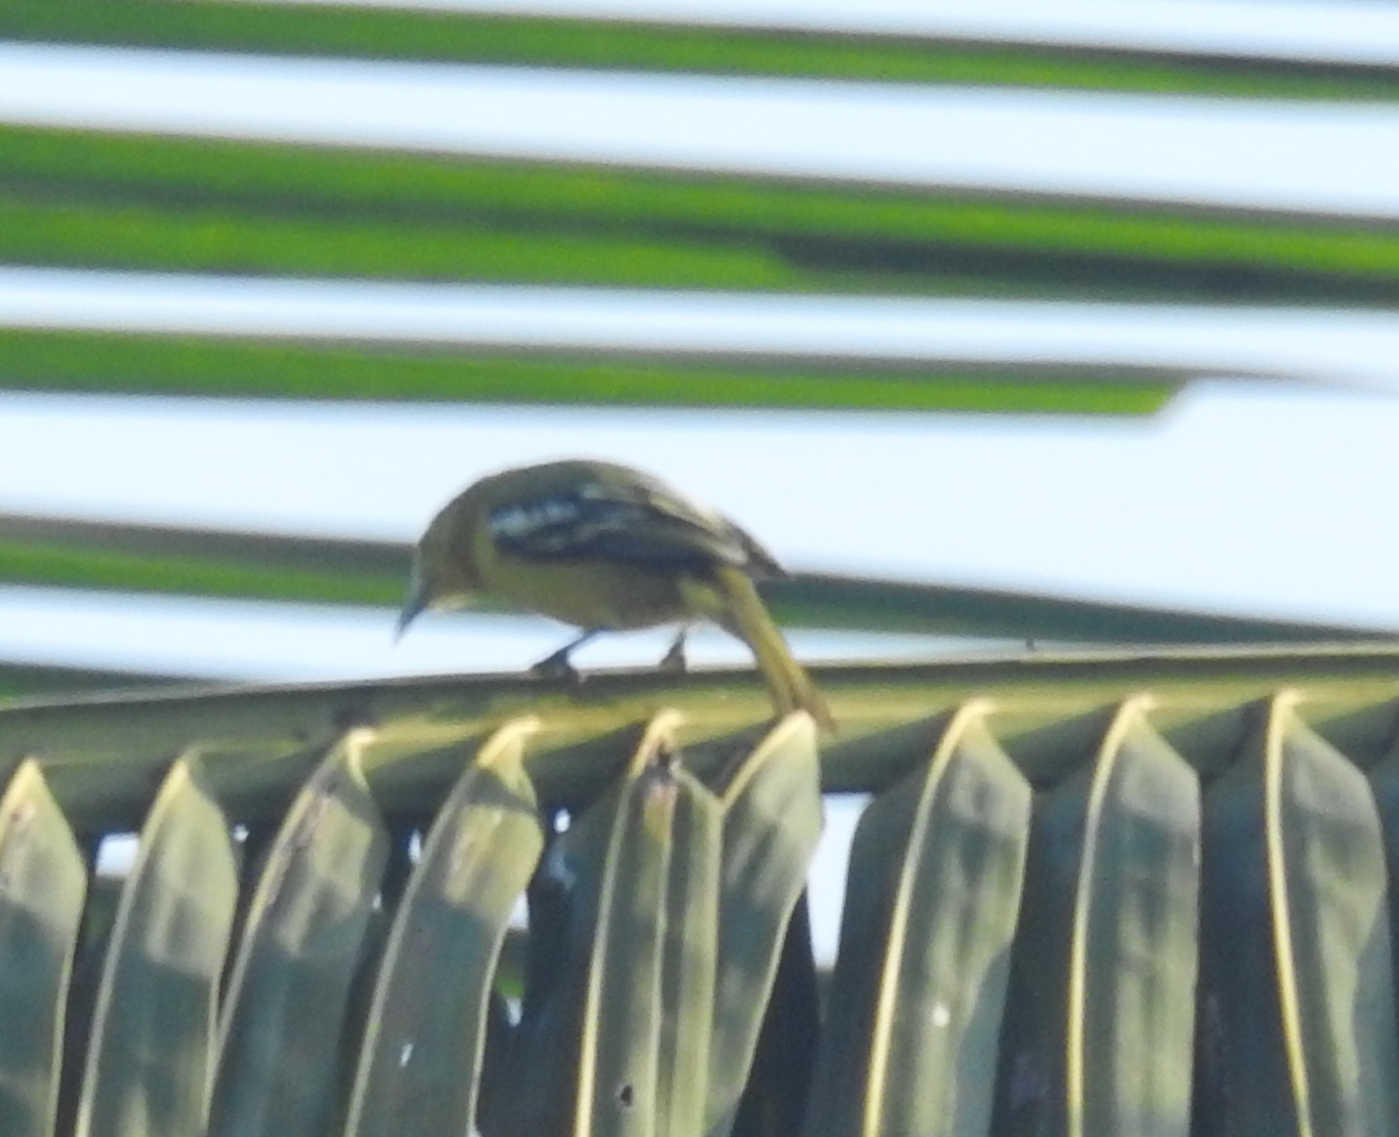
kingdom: Animalia
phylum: Chordata
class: Aves
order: Passeriformes
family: Aegithinidae
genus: Aegithina
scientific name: Aegithina tiphia
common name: Common iora
